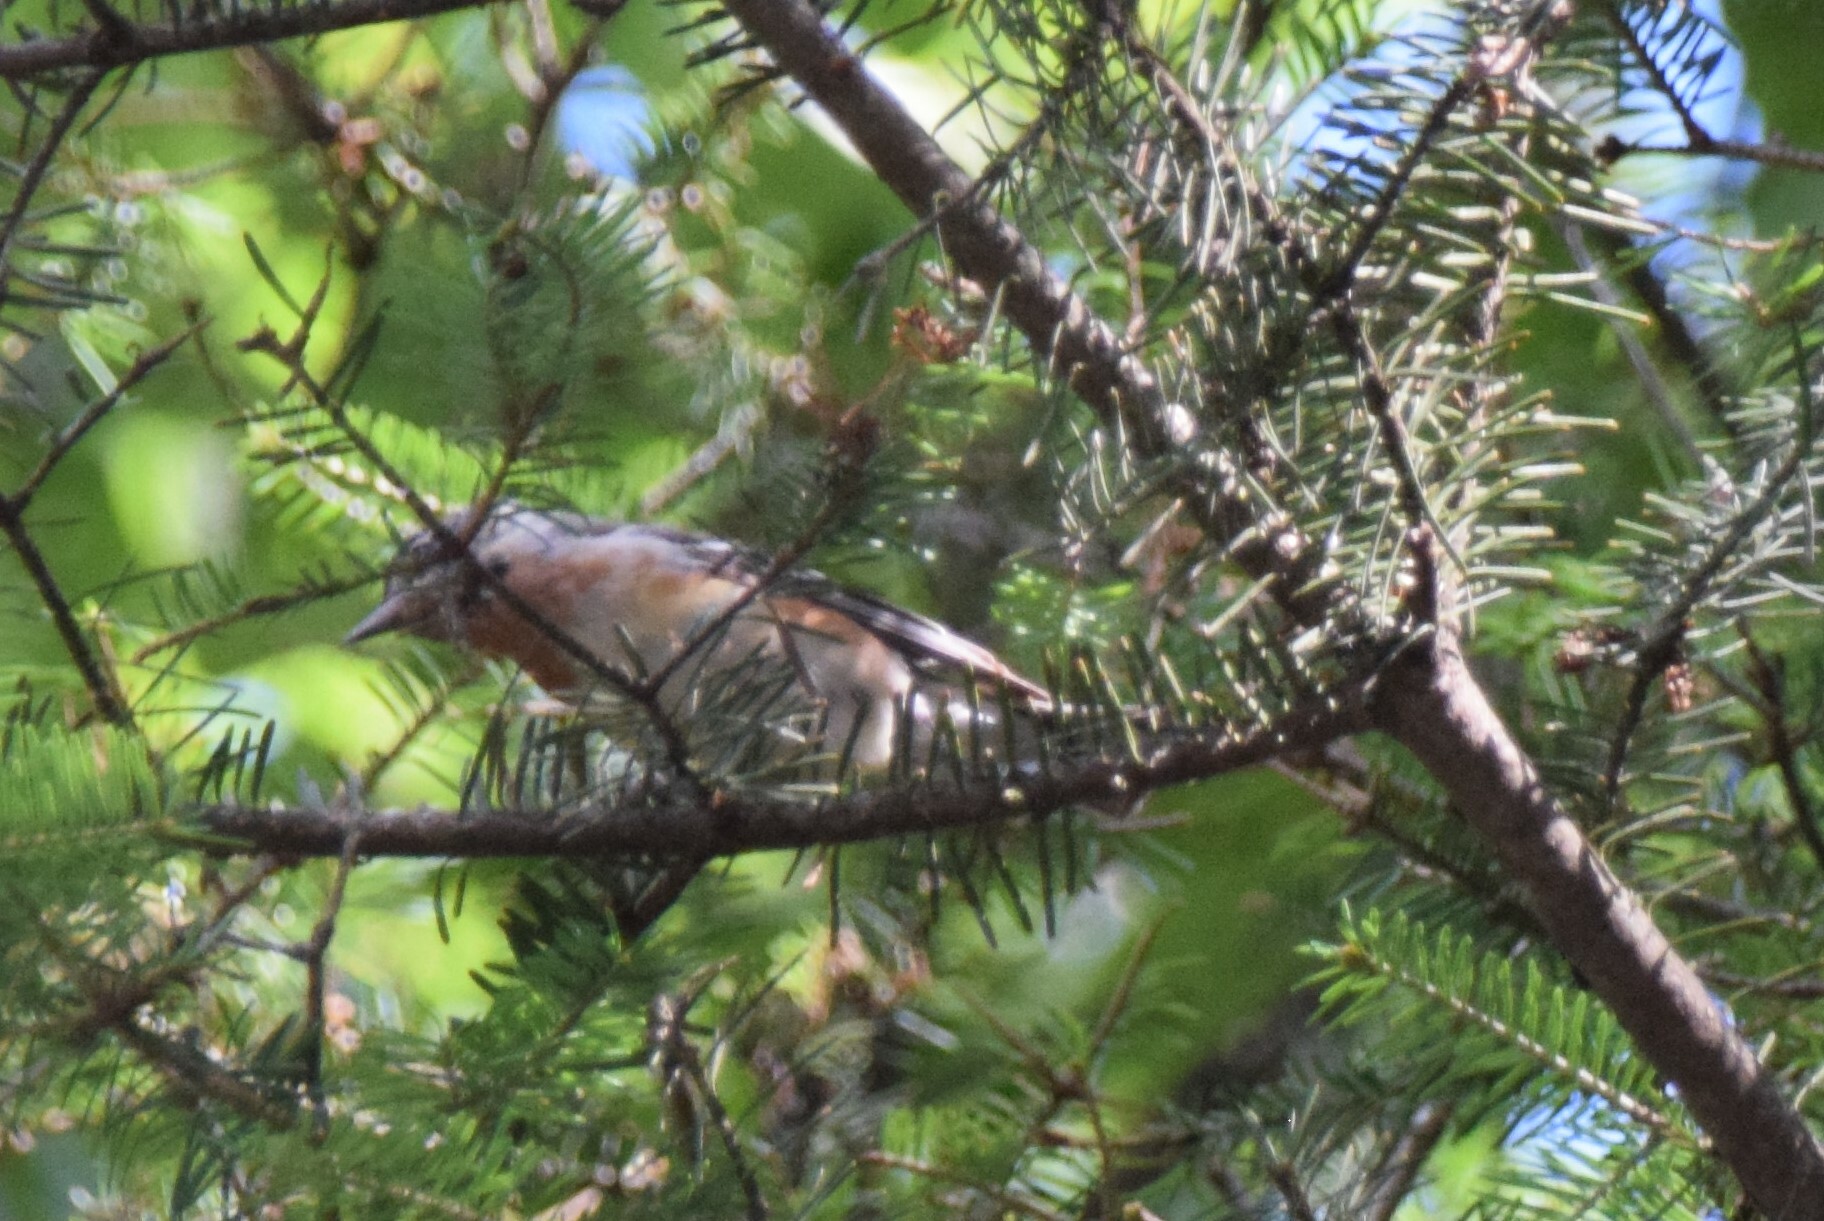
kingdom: Animalia
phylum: Chordata
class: Aves
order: Passeriformes
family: Parulidae
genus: Setophaga
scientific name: Setophaga castanea
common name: Bay-breasted warbler
